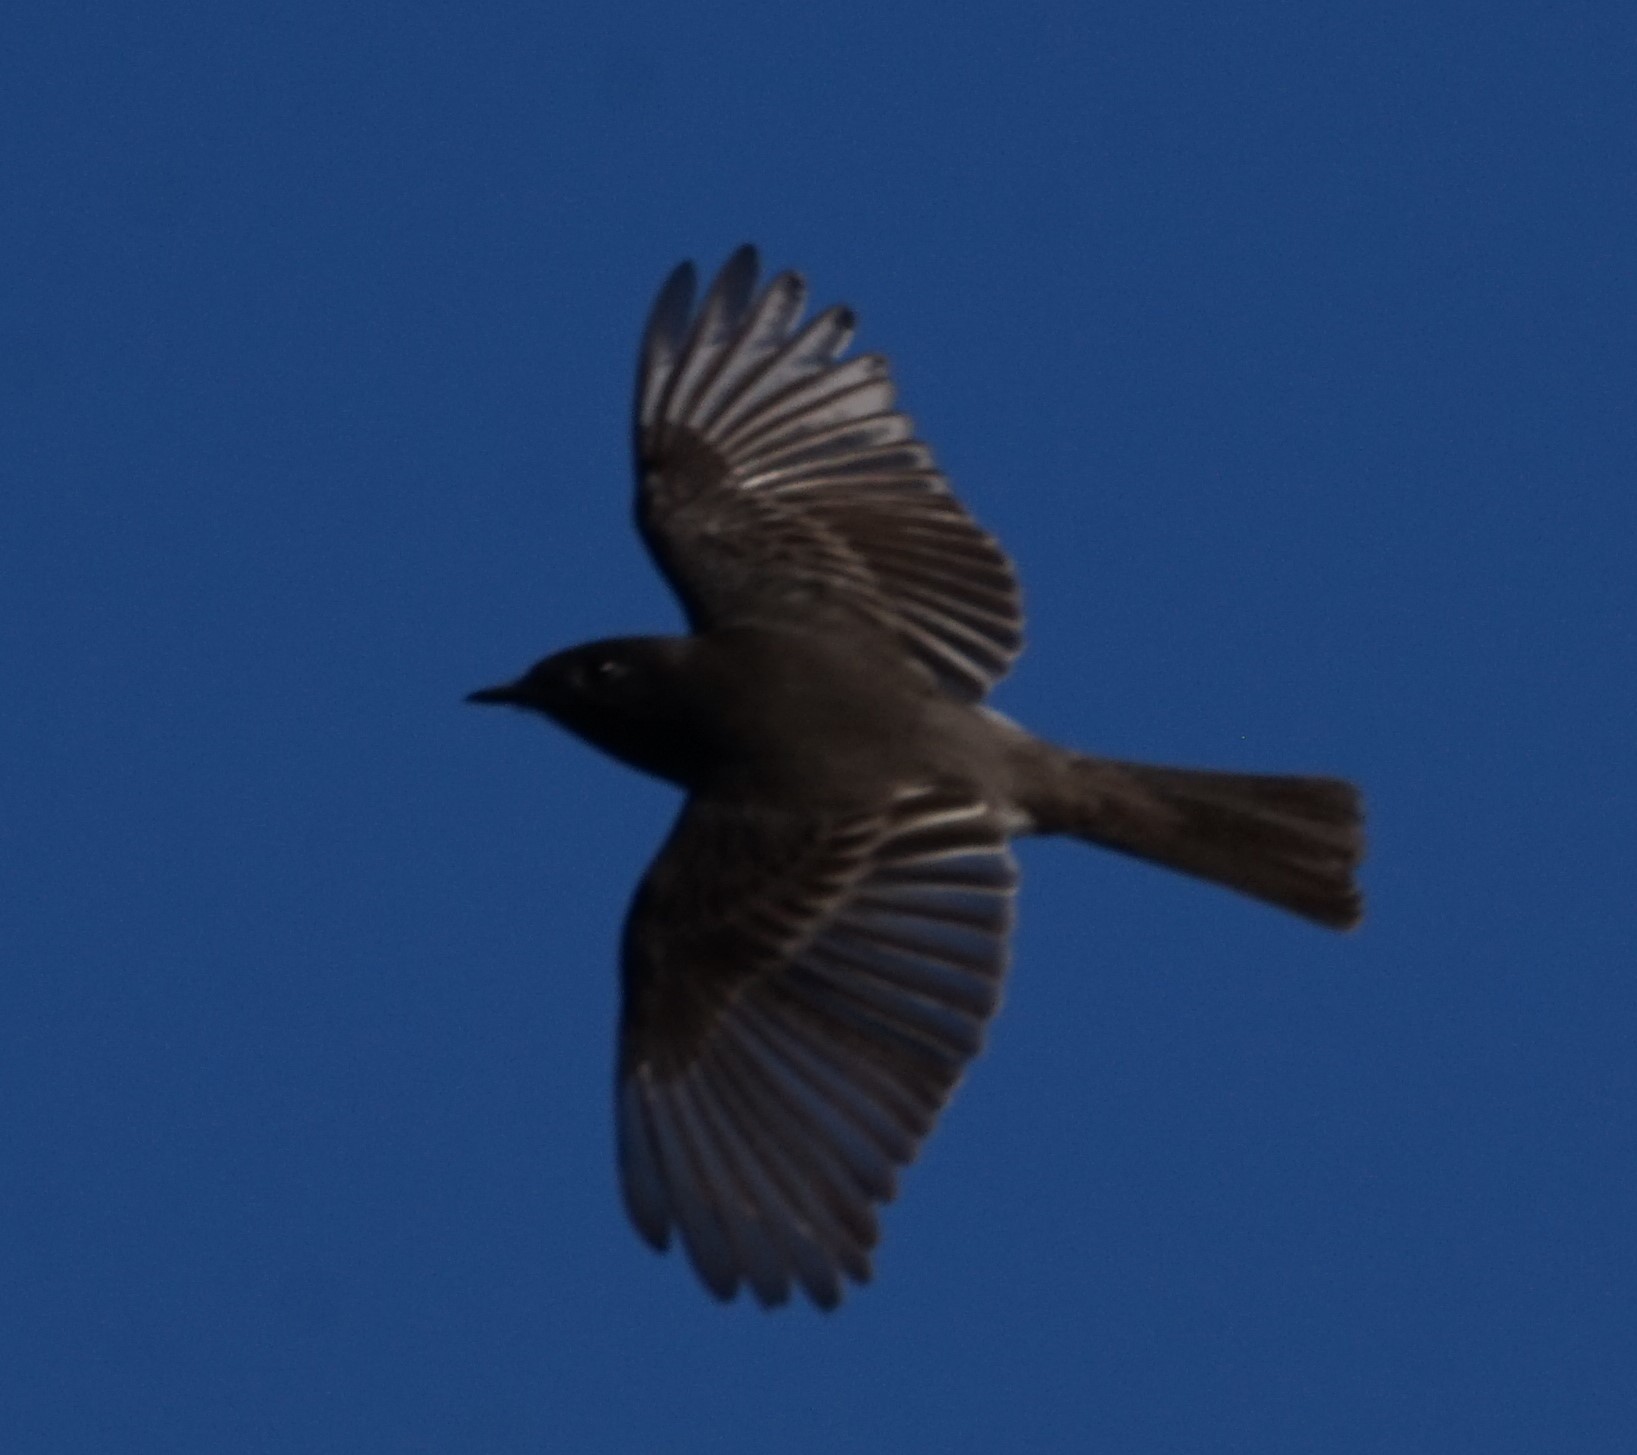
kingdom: Animalia
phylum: Chordata
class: Aves
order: Passeriformes
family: Tyrannidae
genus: Sayornis
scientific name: Sayornis nigricans
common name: Black phoebe
